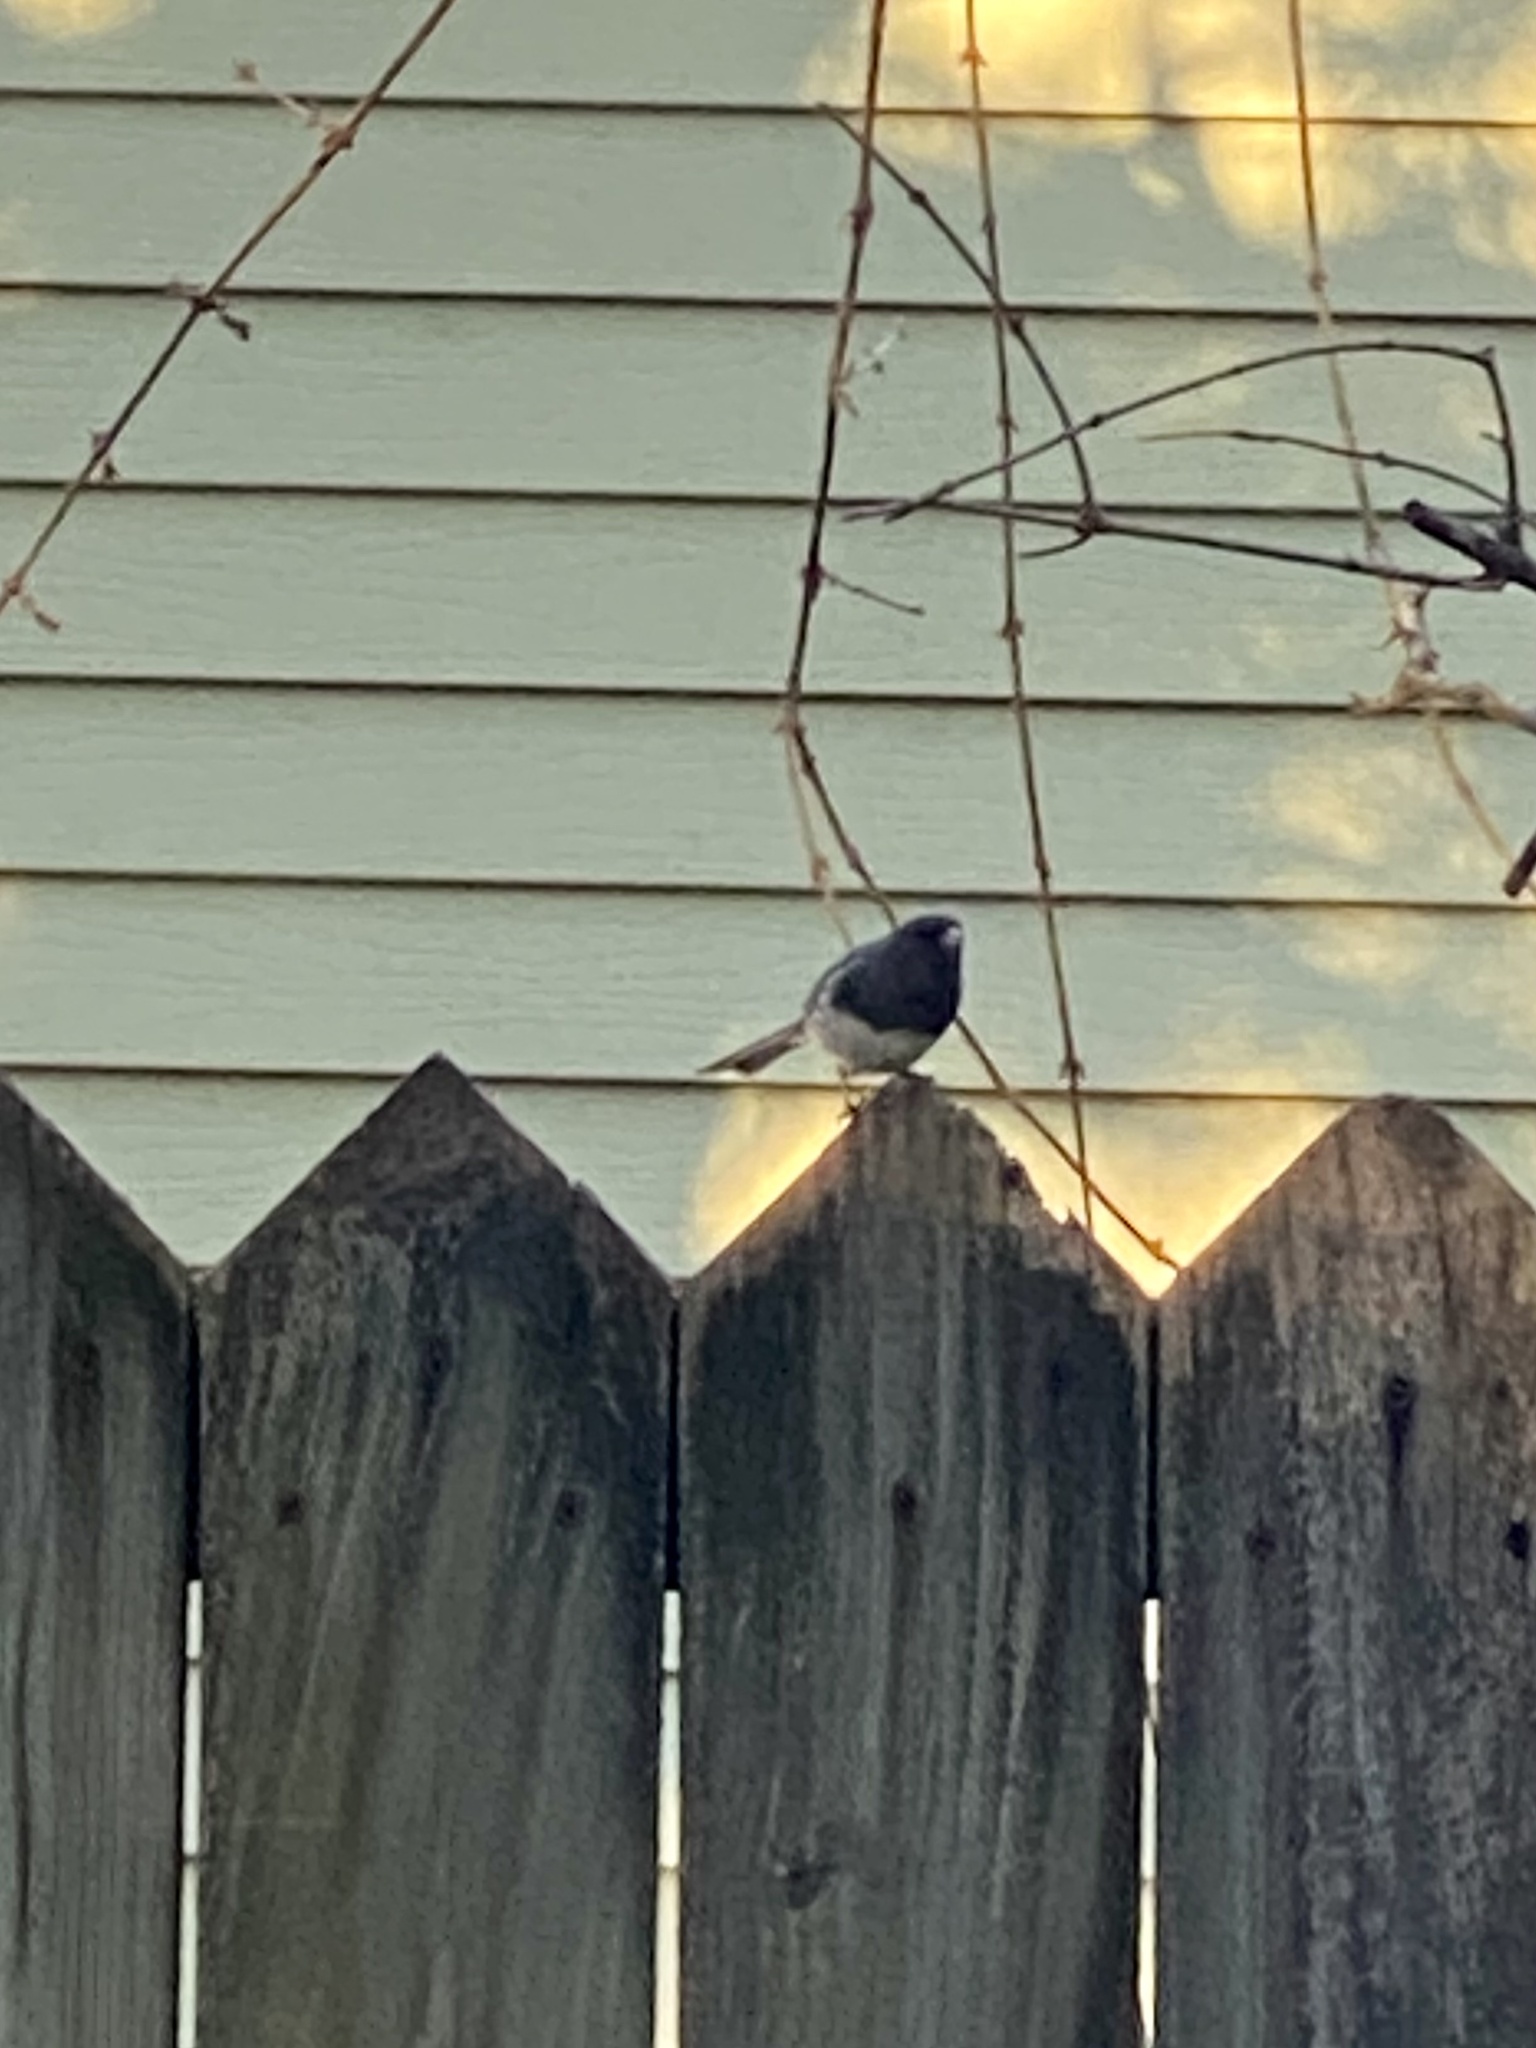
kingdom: Animalia
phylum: Chordata
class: Aves
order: Passeriformes
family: Passerellidae
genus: Junco
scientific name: Junco hyemalis
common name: Dark-eyed junco
